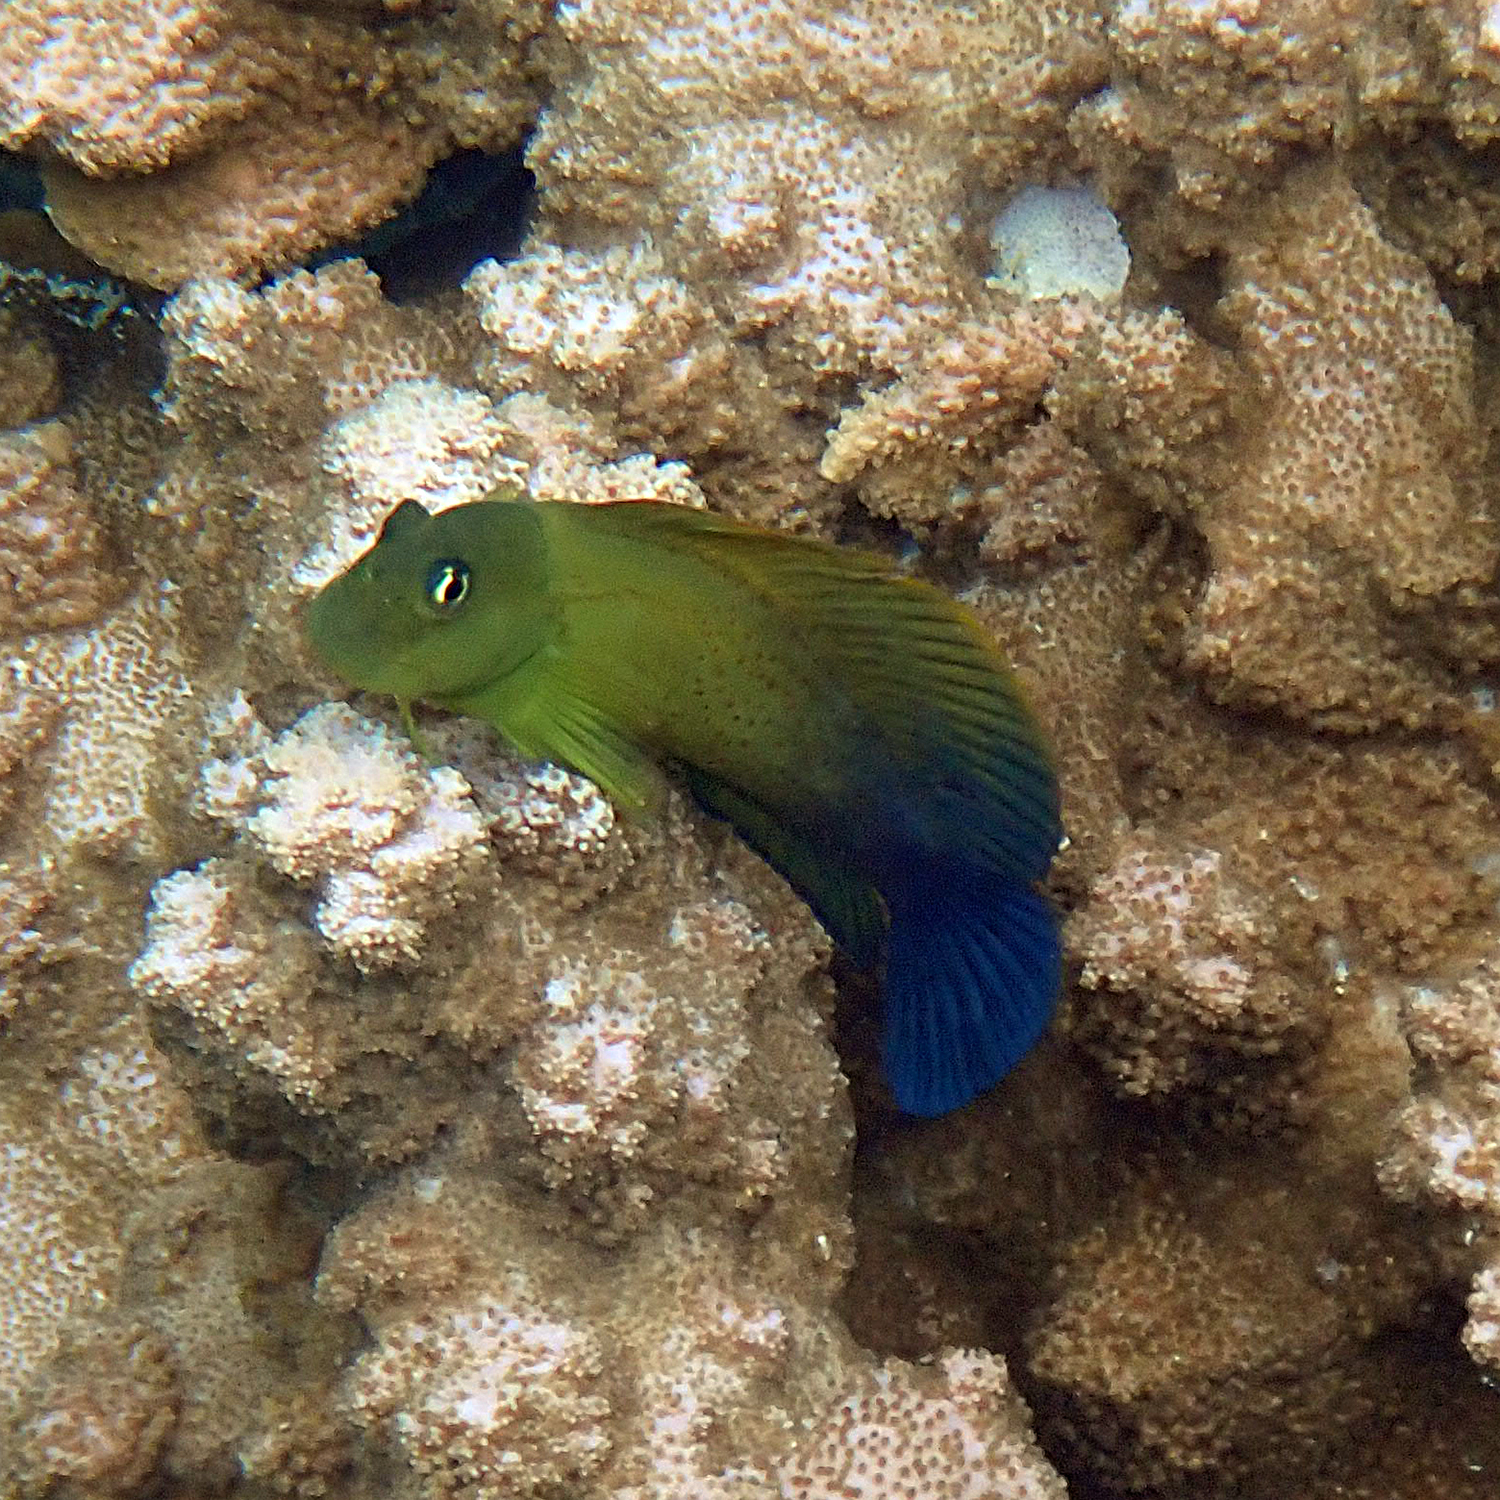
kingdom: Animalia
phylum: Chordata
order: Perciformes
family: Blenniidae
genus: Cirripectes
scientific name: Cirripectes chelomatus
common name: Lady musgrave blenny
